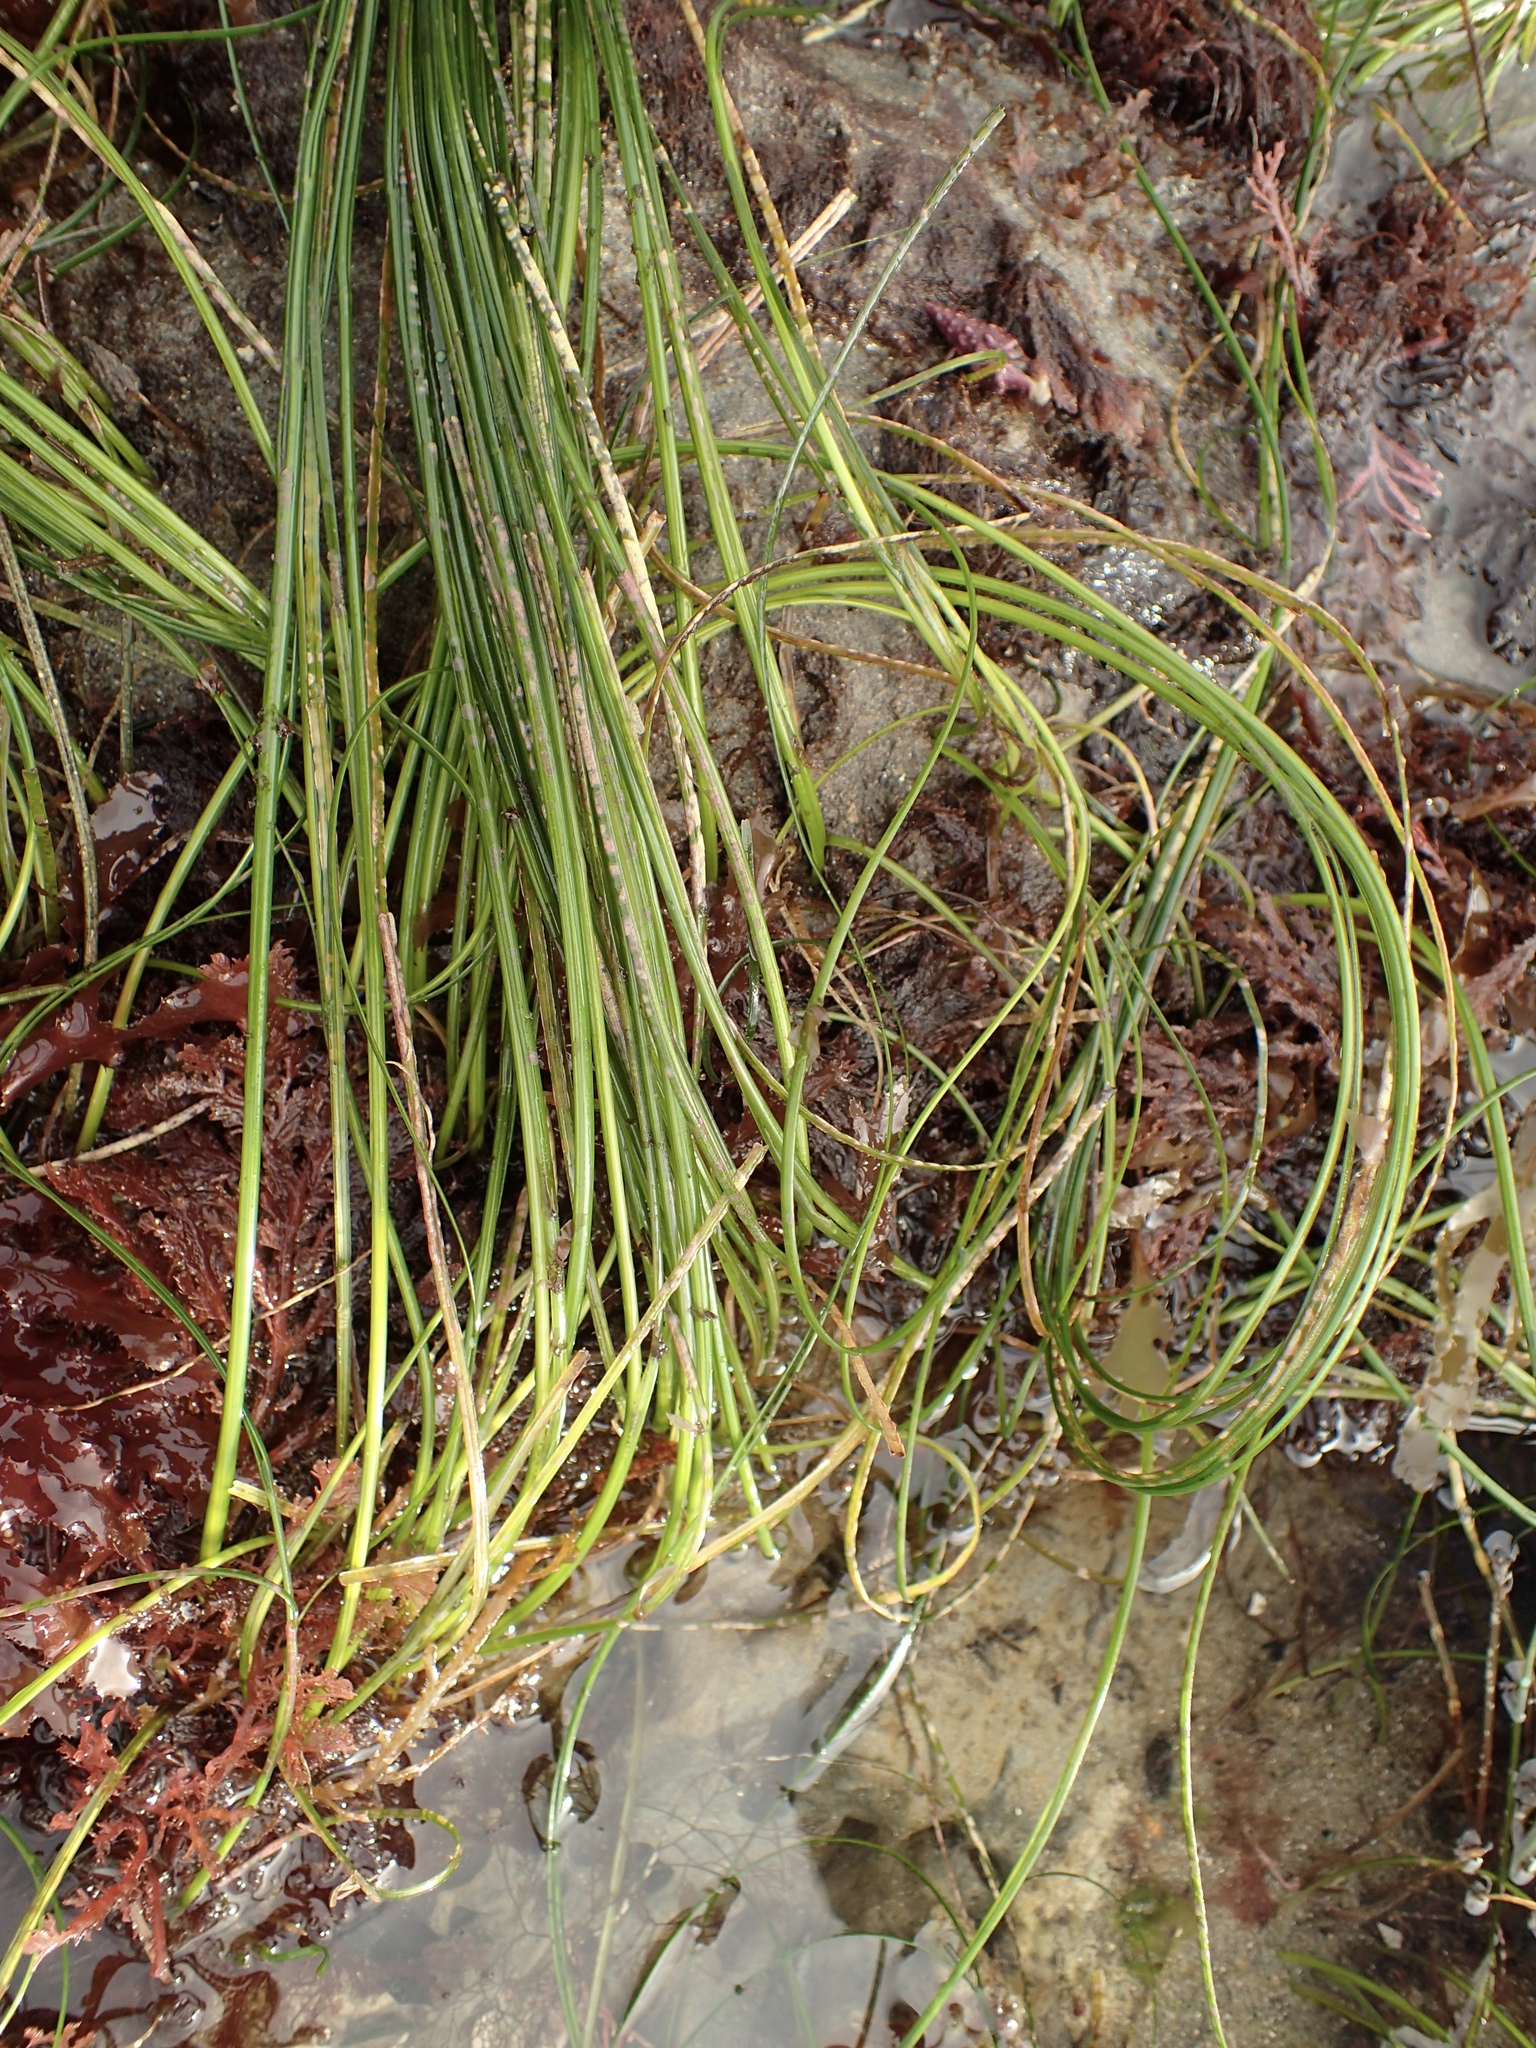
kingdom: Plantae
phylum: Tracheophyta
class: Liliopsida
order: Alismatales
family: Zosteraceae
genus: Phyllospadix
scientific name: Phyllospadix torreyi
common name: Surfgrass
